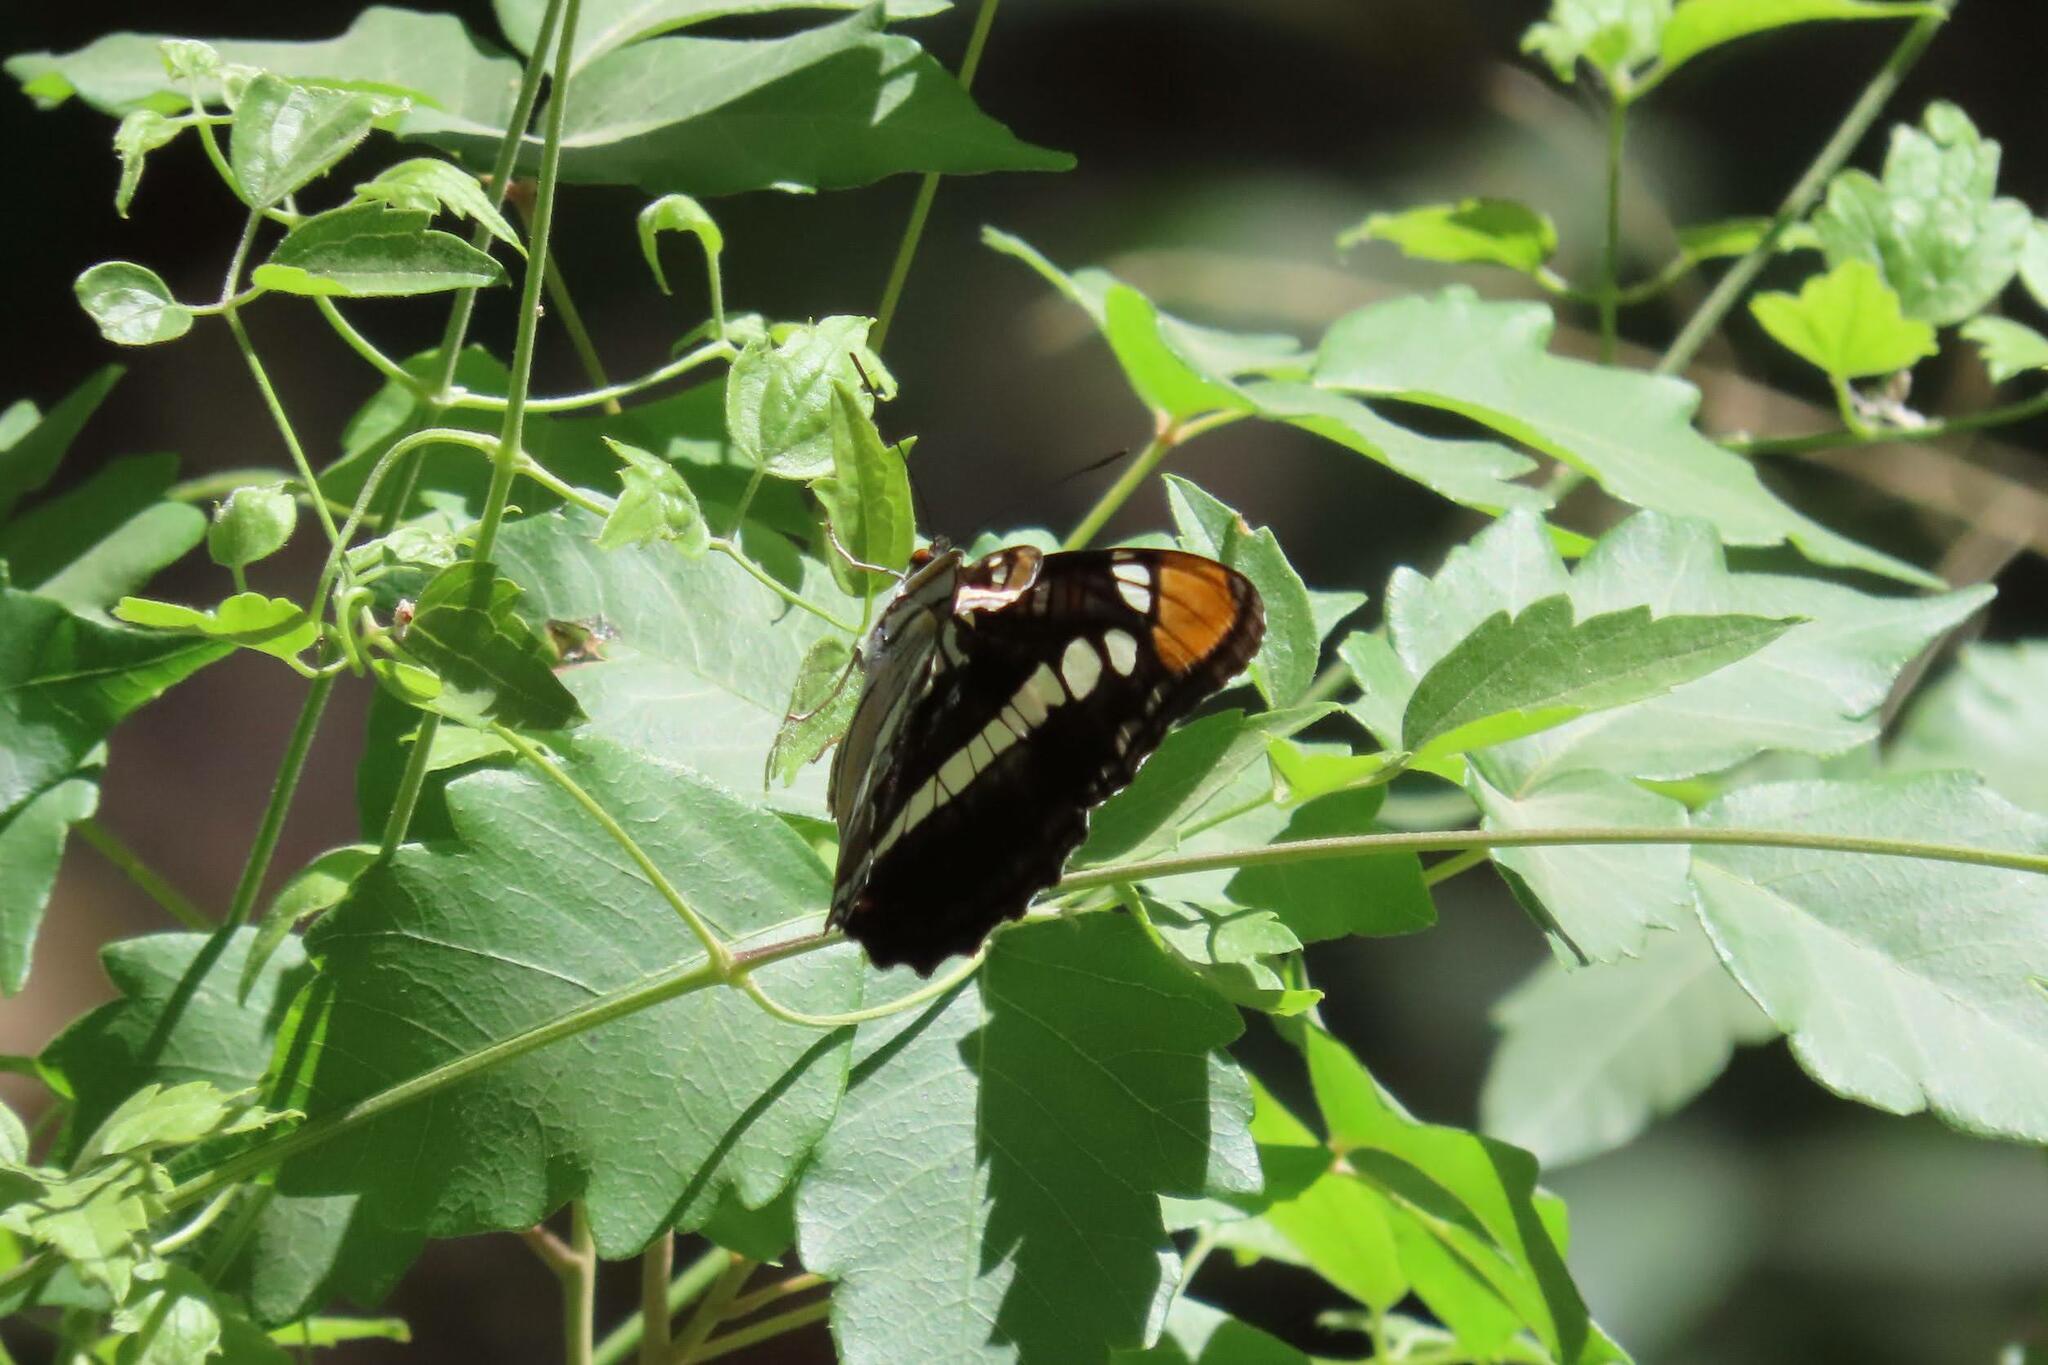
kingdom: Animalia
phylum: Arthropoda
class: Insecta
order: Lepidoptera
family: Nymphalidae
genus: Limenitis
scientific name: Limenitis bredowii
